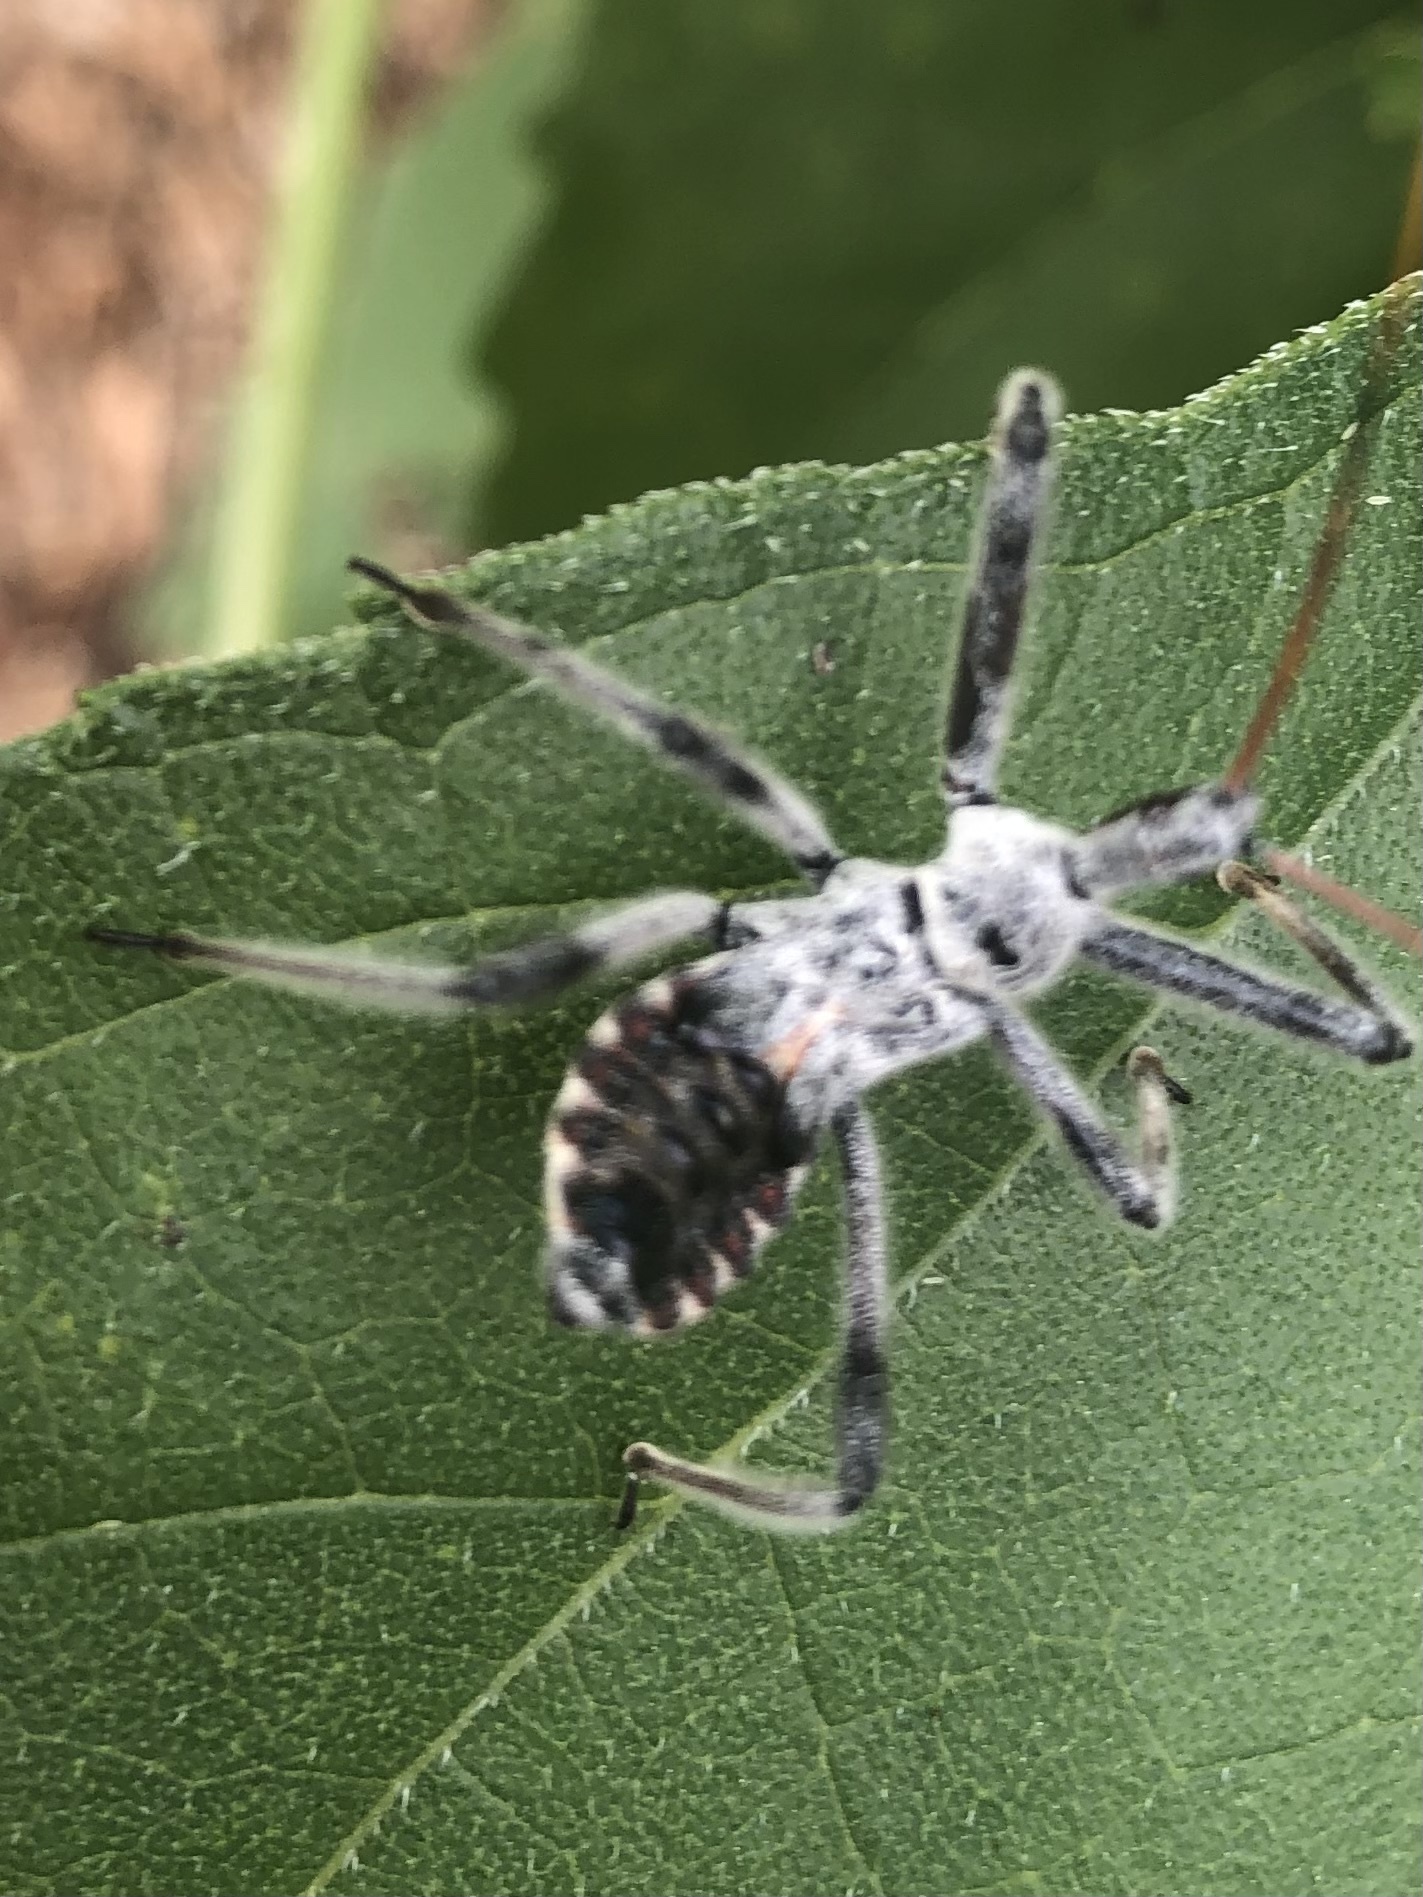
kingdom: Animalia
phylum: Arthropoda
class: Insecta
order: Hemiptera
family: Reduviidae
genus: Arilus
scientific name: Arilus cristatus
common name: North american wheel bug
